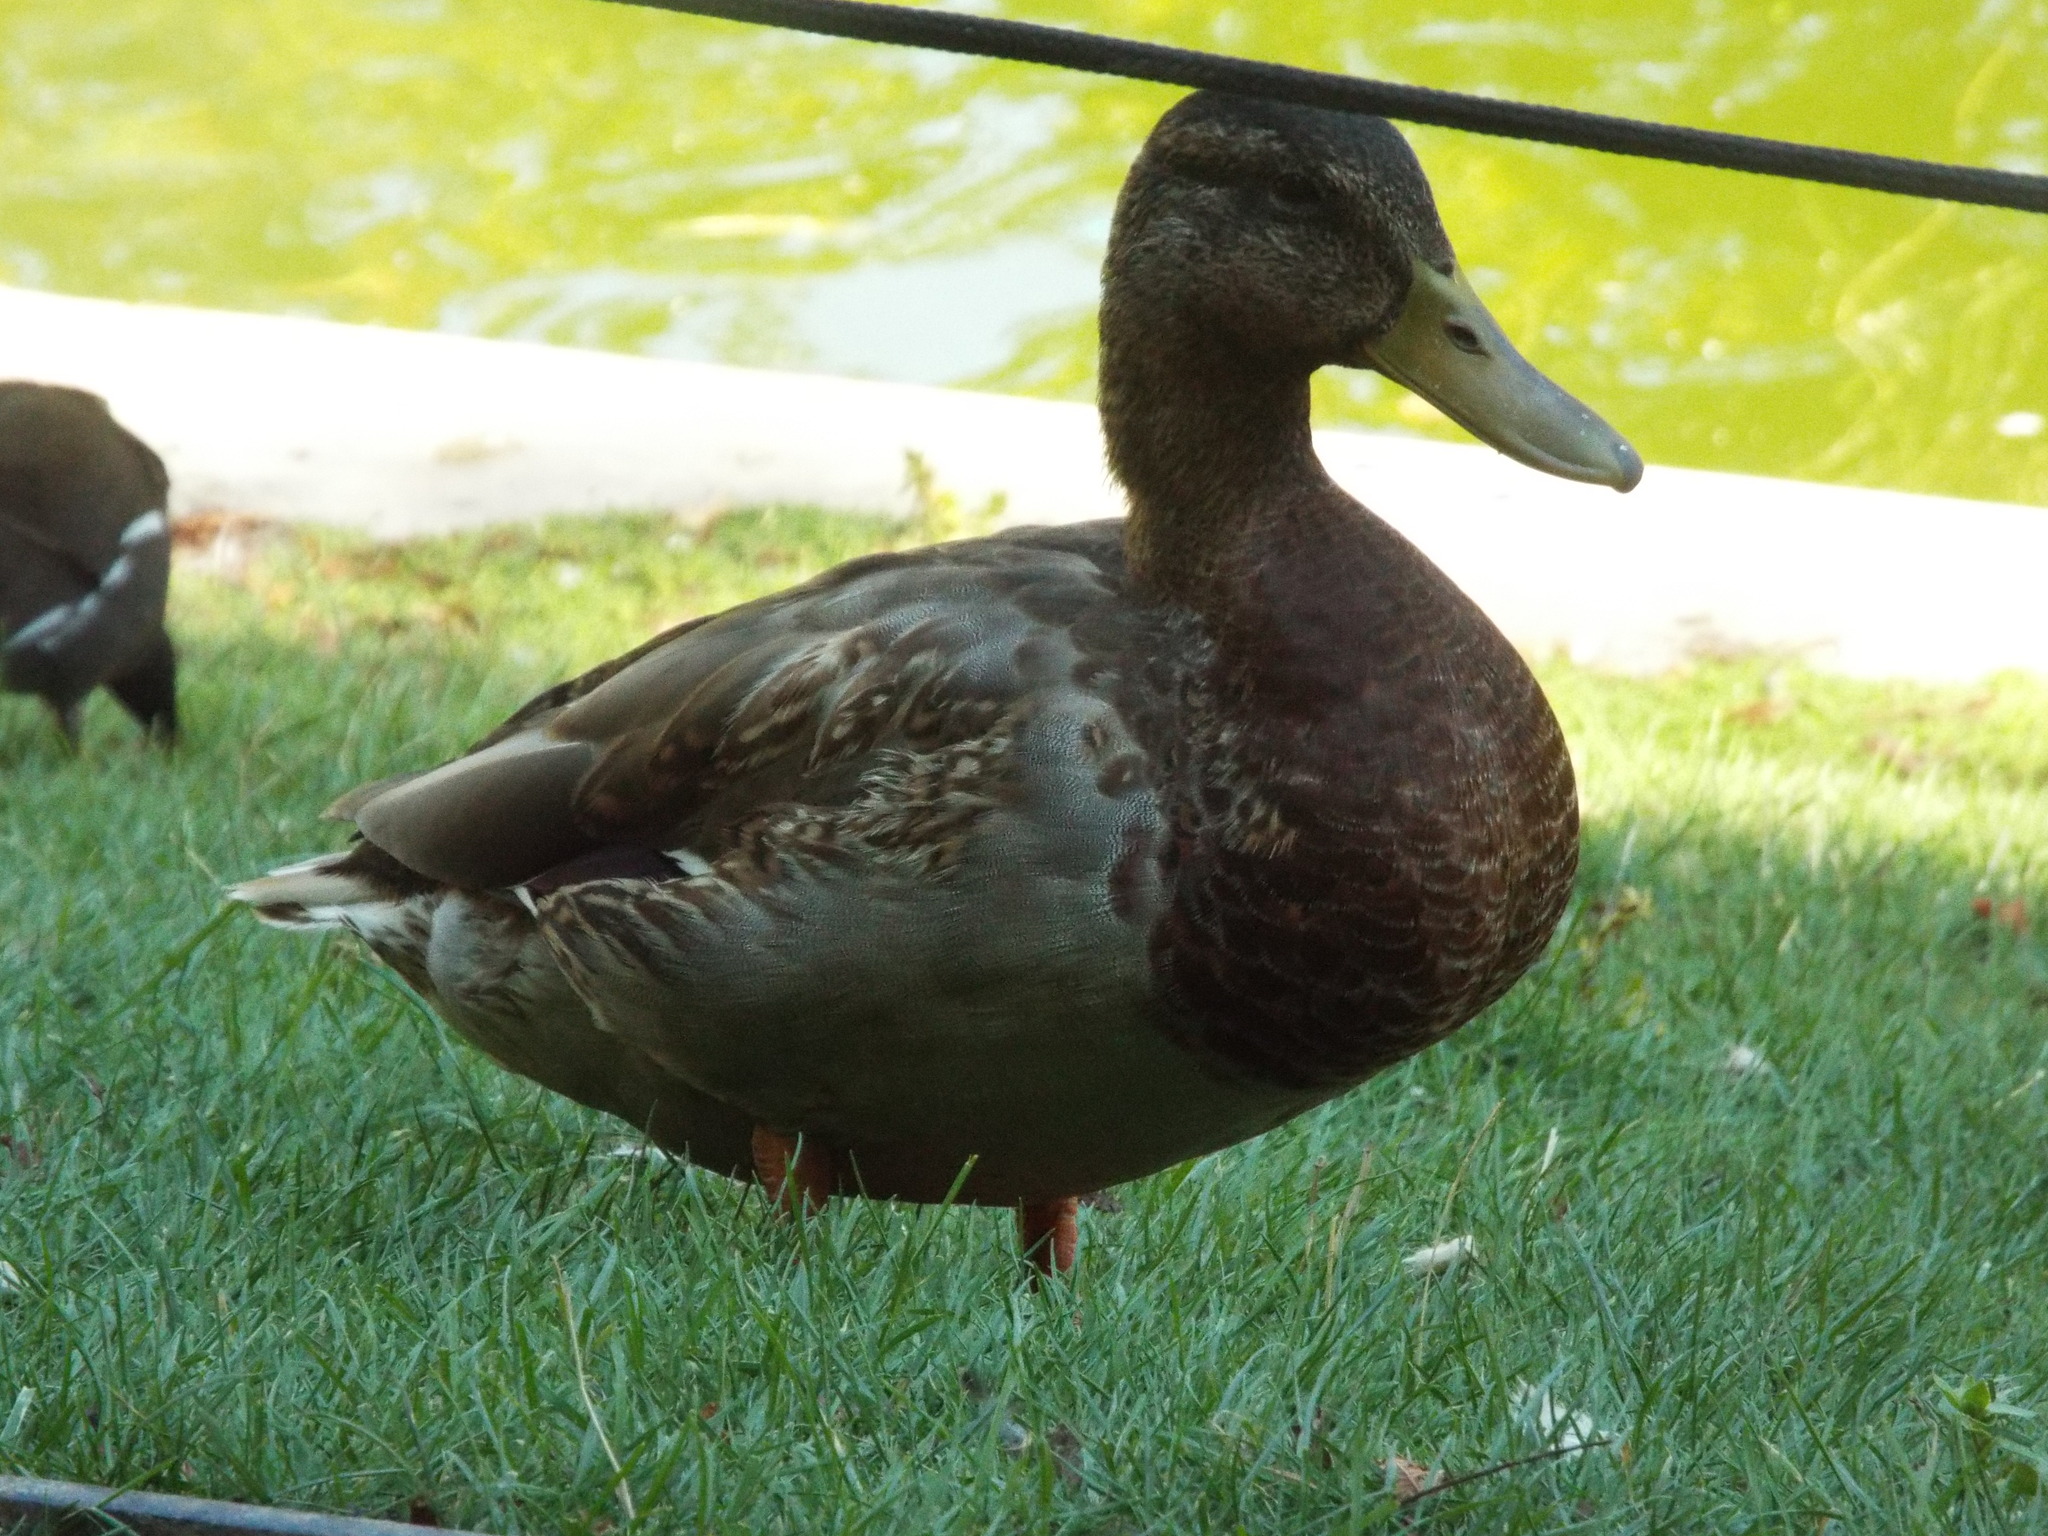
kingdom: Animalia
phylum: Chordata
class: Aves
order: Anseriformes
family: Anatidae
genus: Anas
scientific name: Anas platyrhynchos
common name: Mallard
